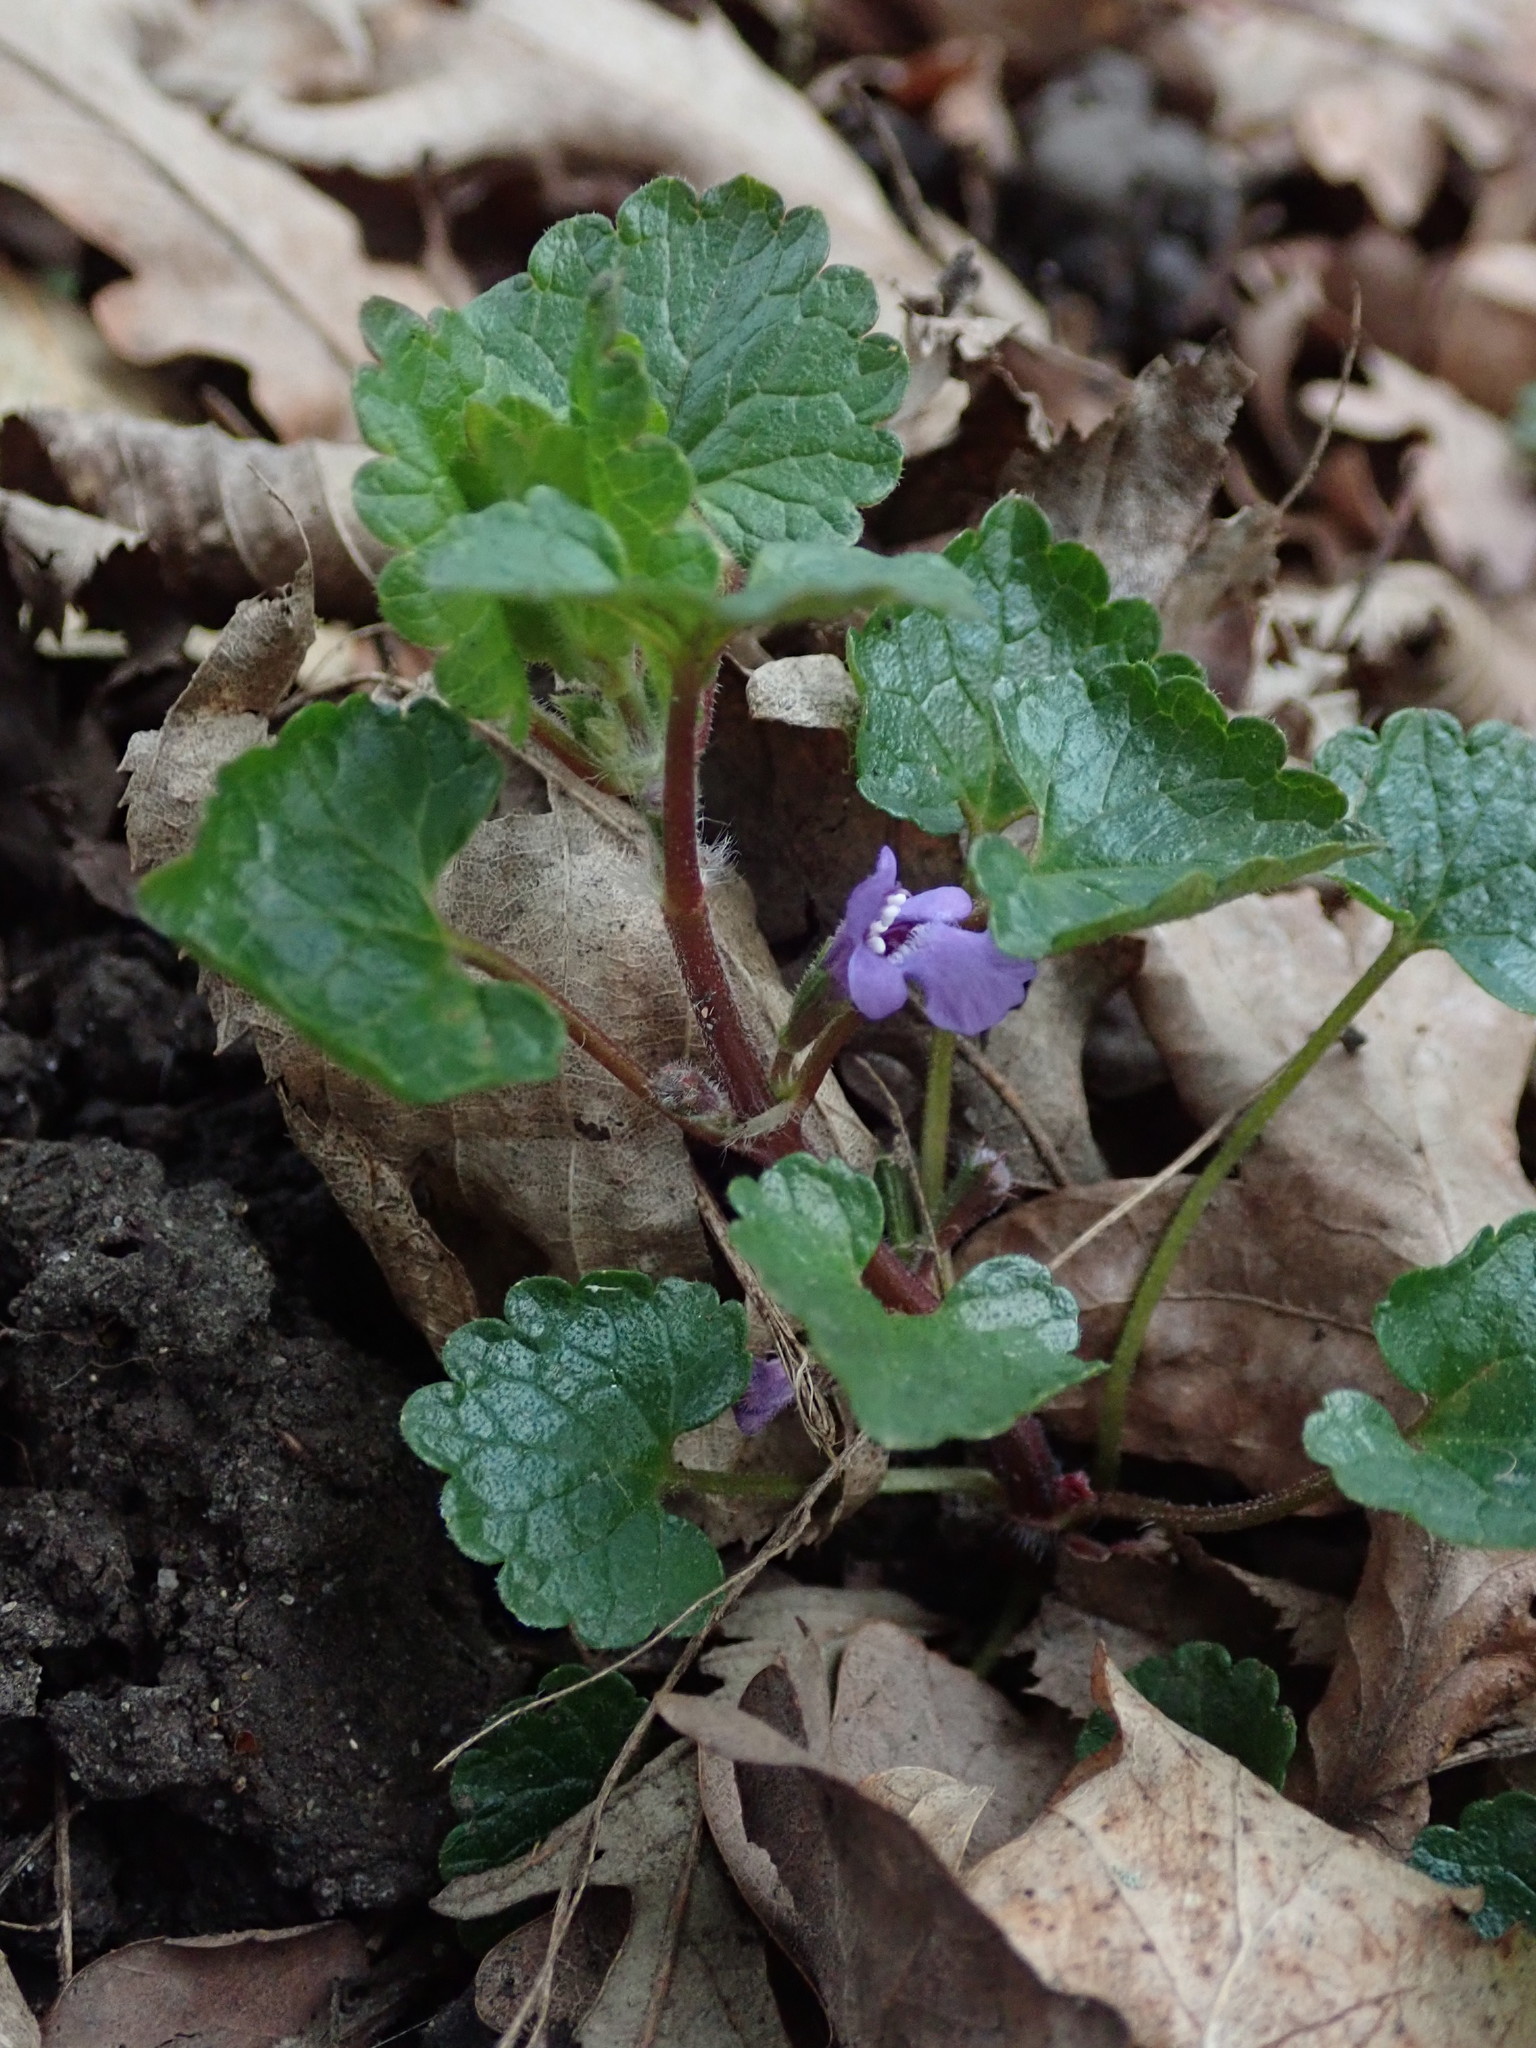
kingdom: Plantae
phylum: Tracheophyta
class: Magnoliopsida
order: Lamiales
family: Lamiaceae
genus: Glechoma
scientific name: Glechoma hederacea
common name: Ground ivy
